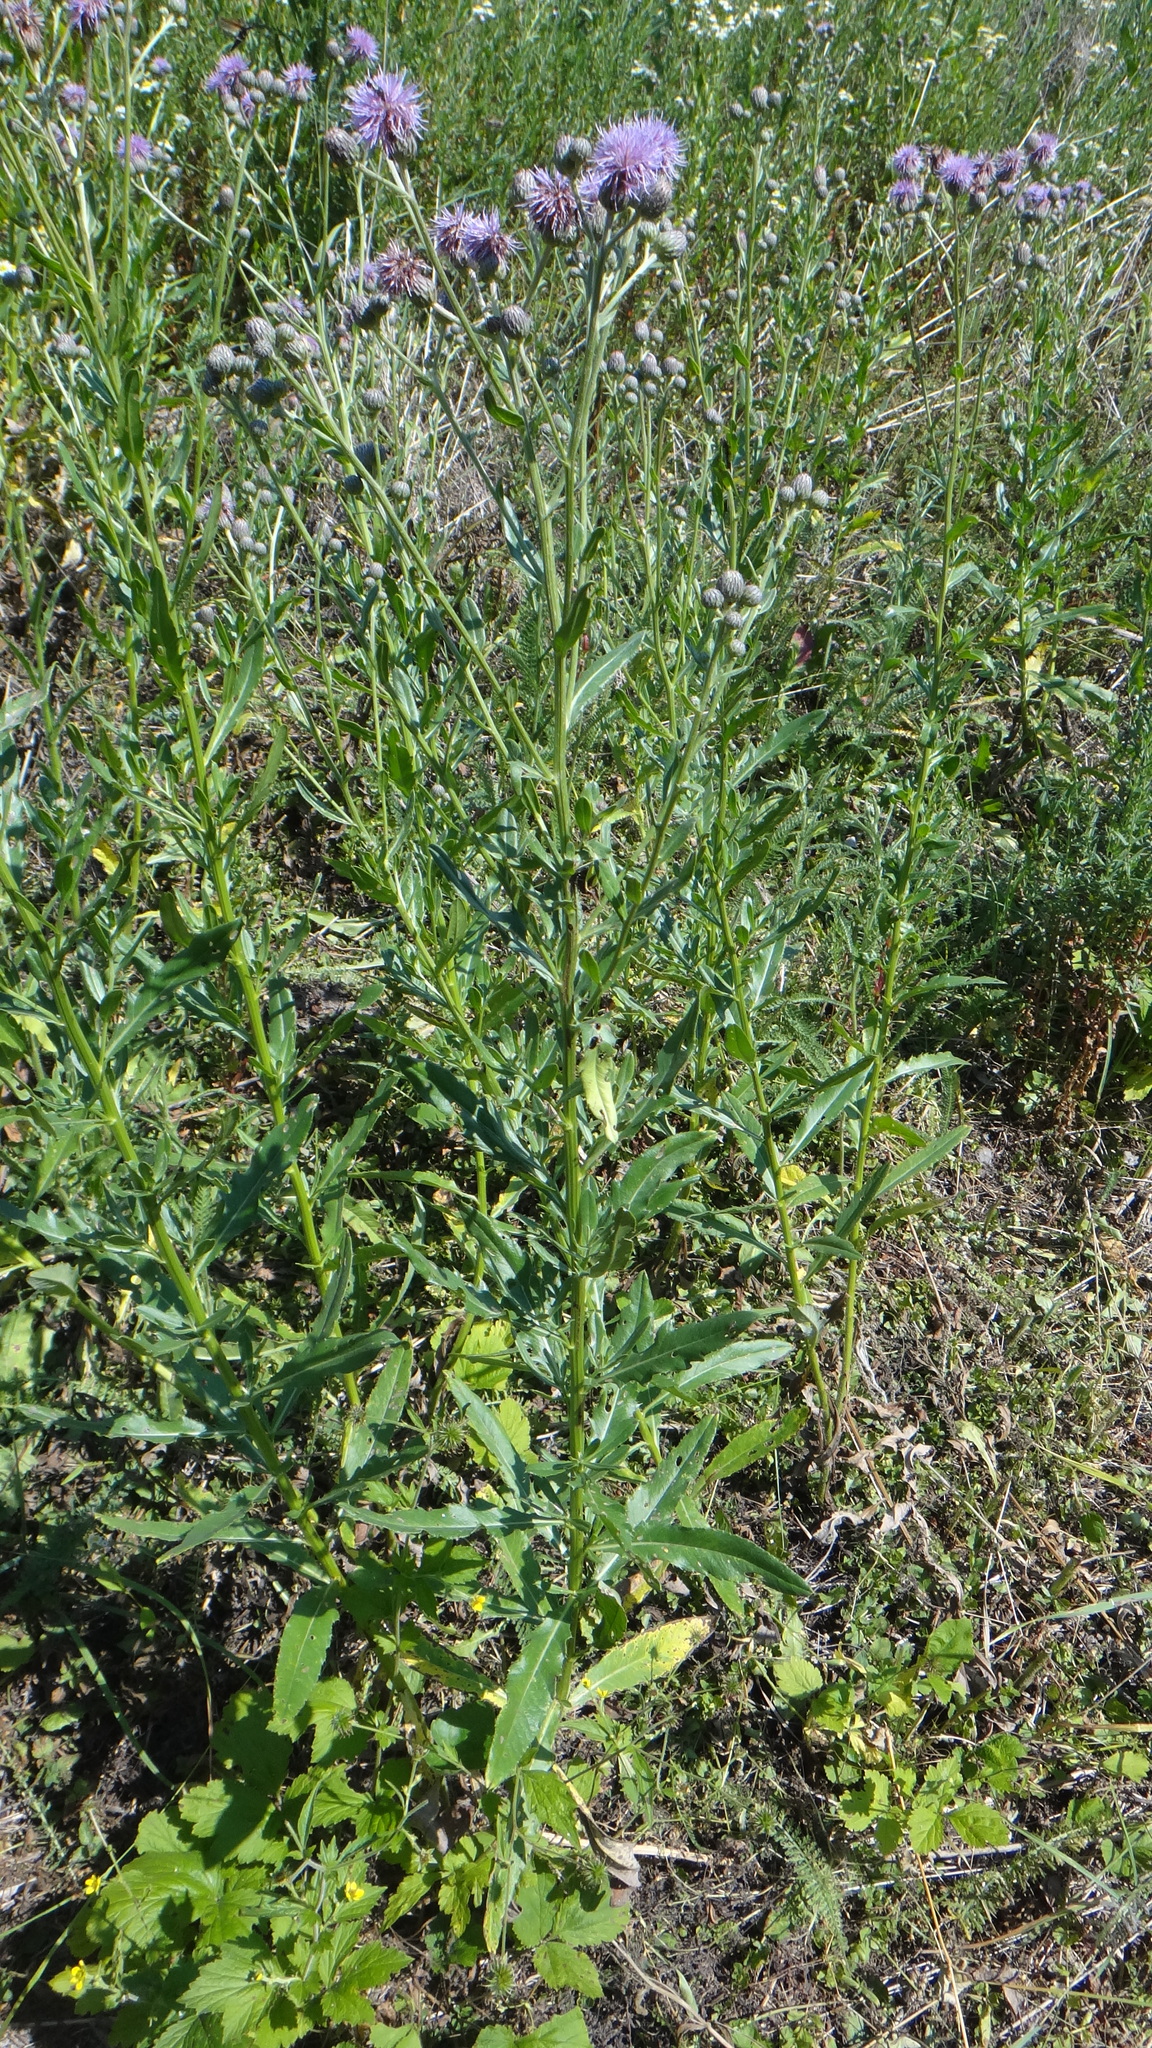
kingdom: Plantae
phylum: Tracheophyta
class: Magnoliopsida
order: Asterales
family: Asteraceae
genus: Cirsium
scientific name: Cirsium arvense
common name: Creeping thistle
